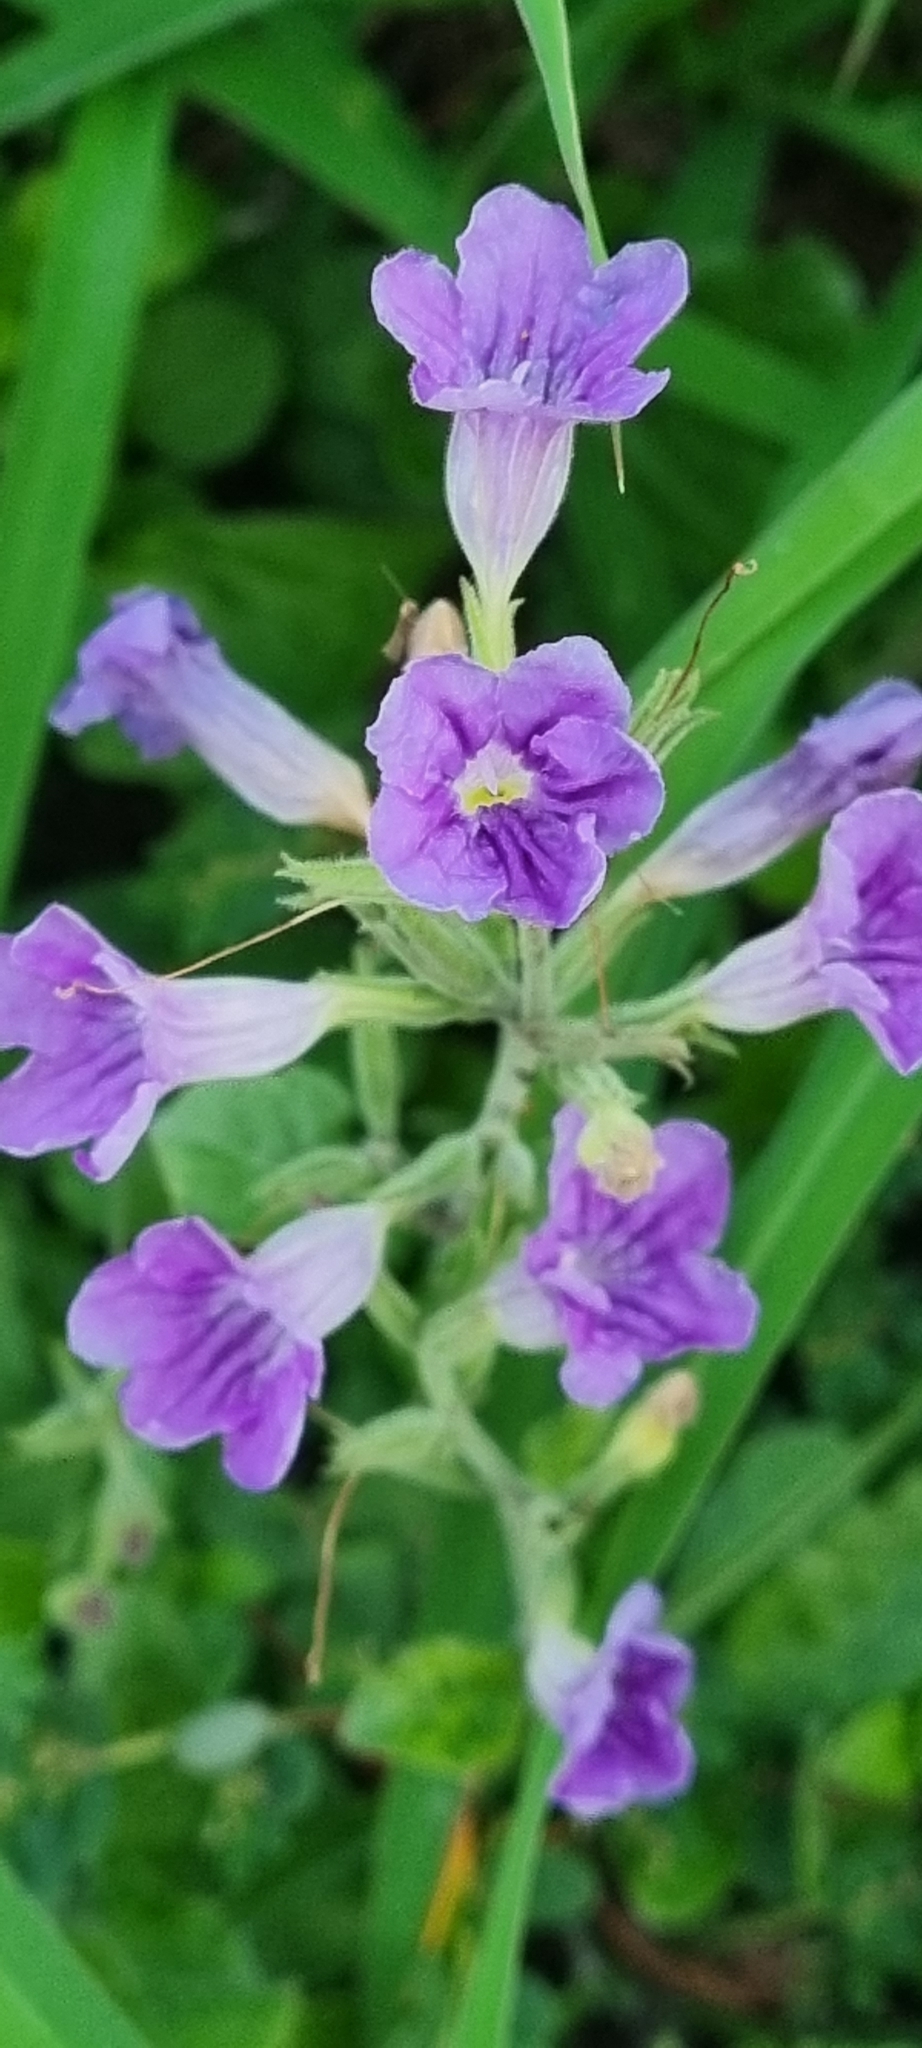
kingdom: Plantae
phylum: Tracheophyta
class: Magnoliopsida
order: Lamiales
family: Acanthaceae
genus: Ruellia
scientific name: Ruellia ciliatiflora
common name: Hairyflower wild petunia
